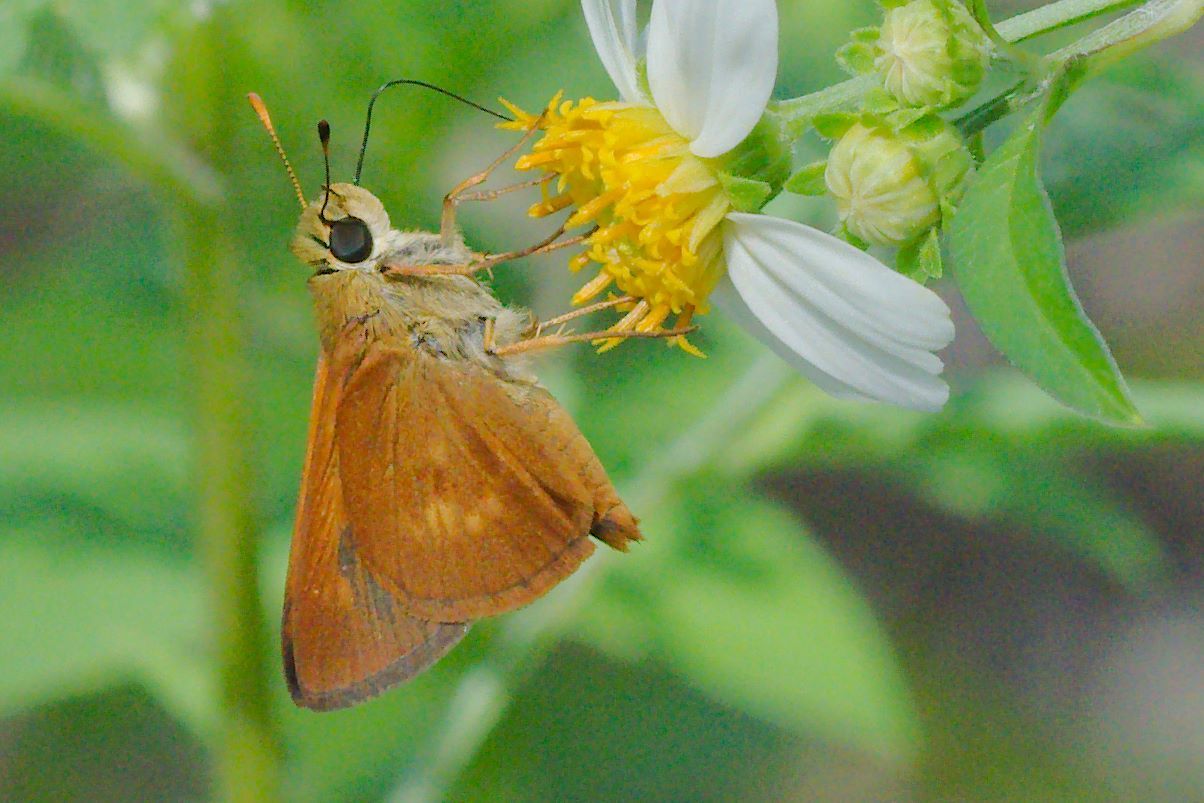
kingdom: Animalia
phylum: Arthropoda
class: Insecta
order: Lepidoptera
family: Hesperiidae
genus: Polites
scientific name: Polites otho
